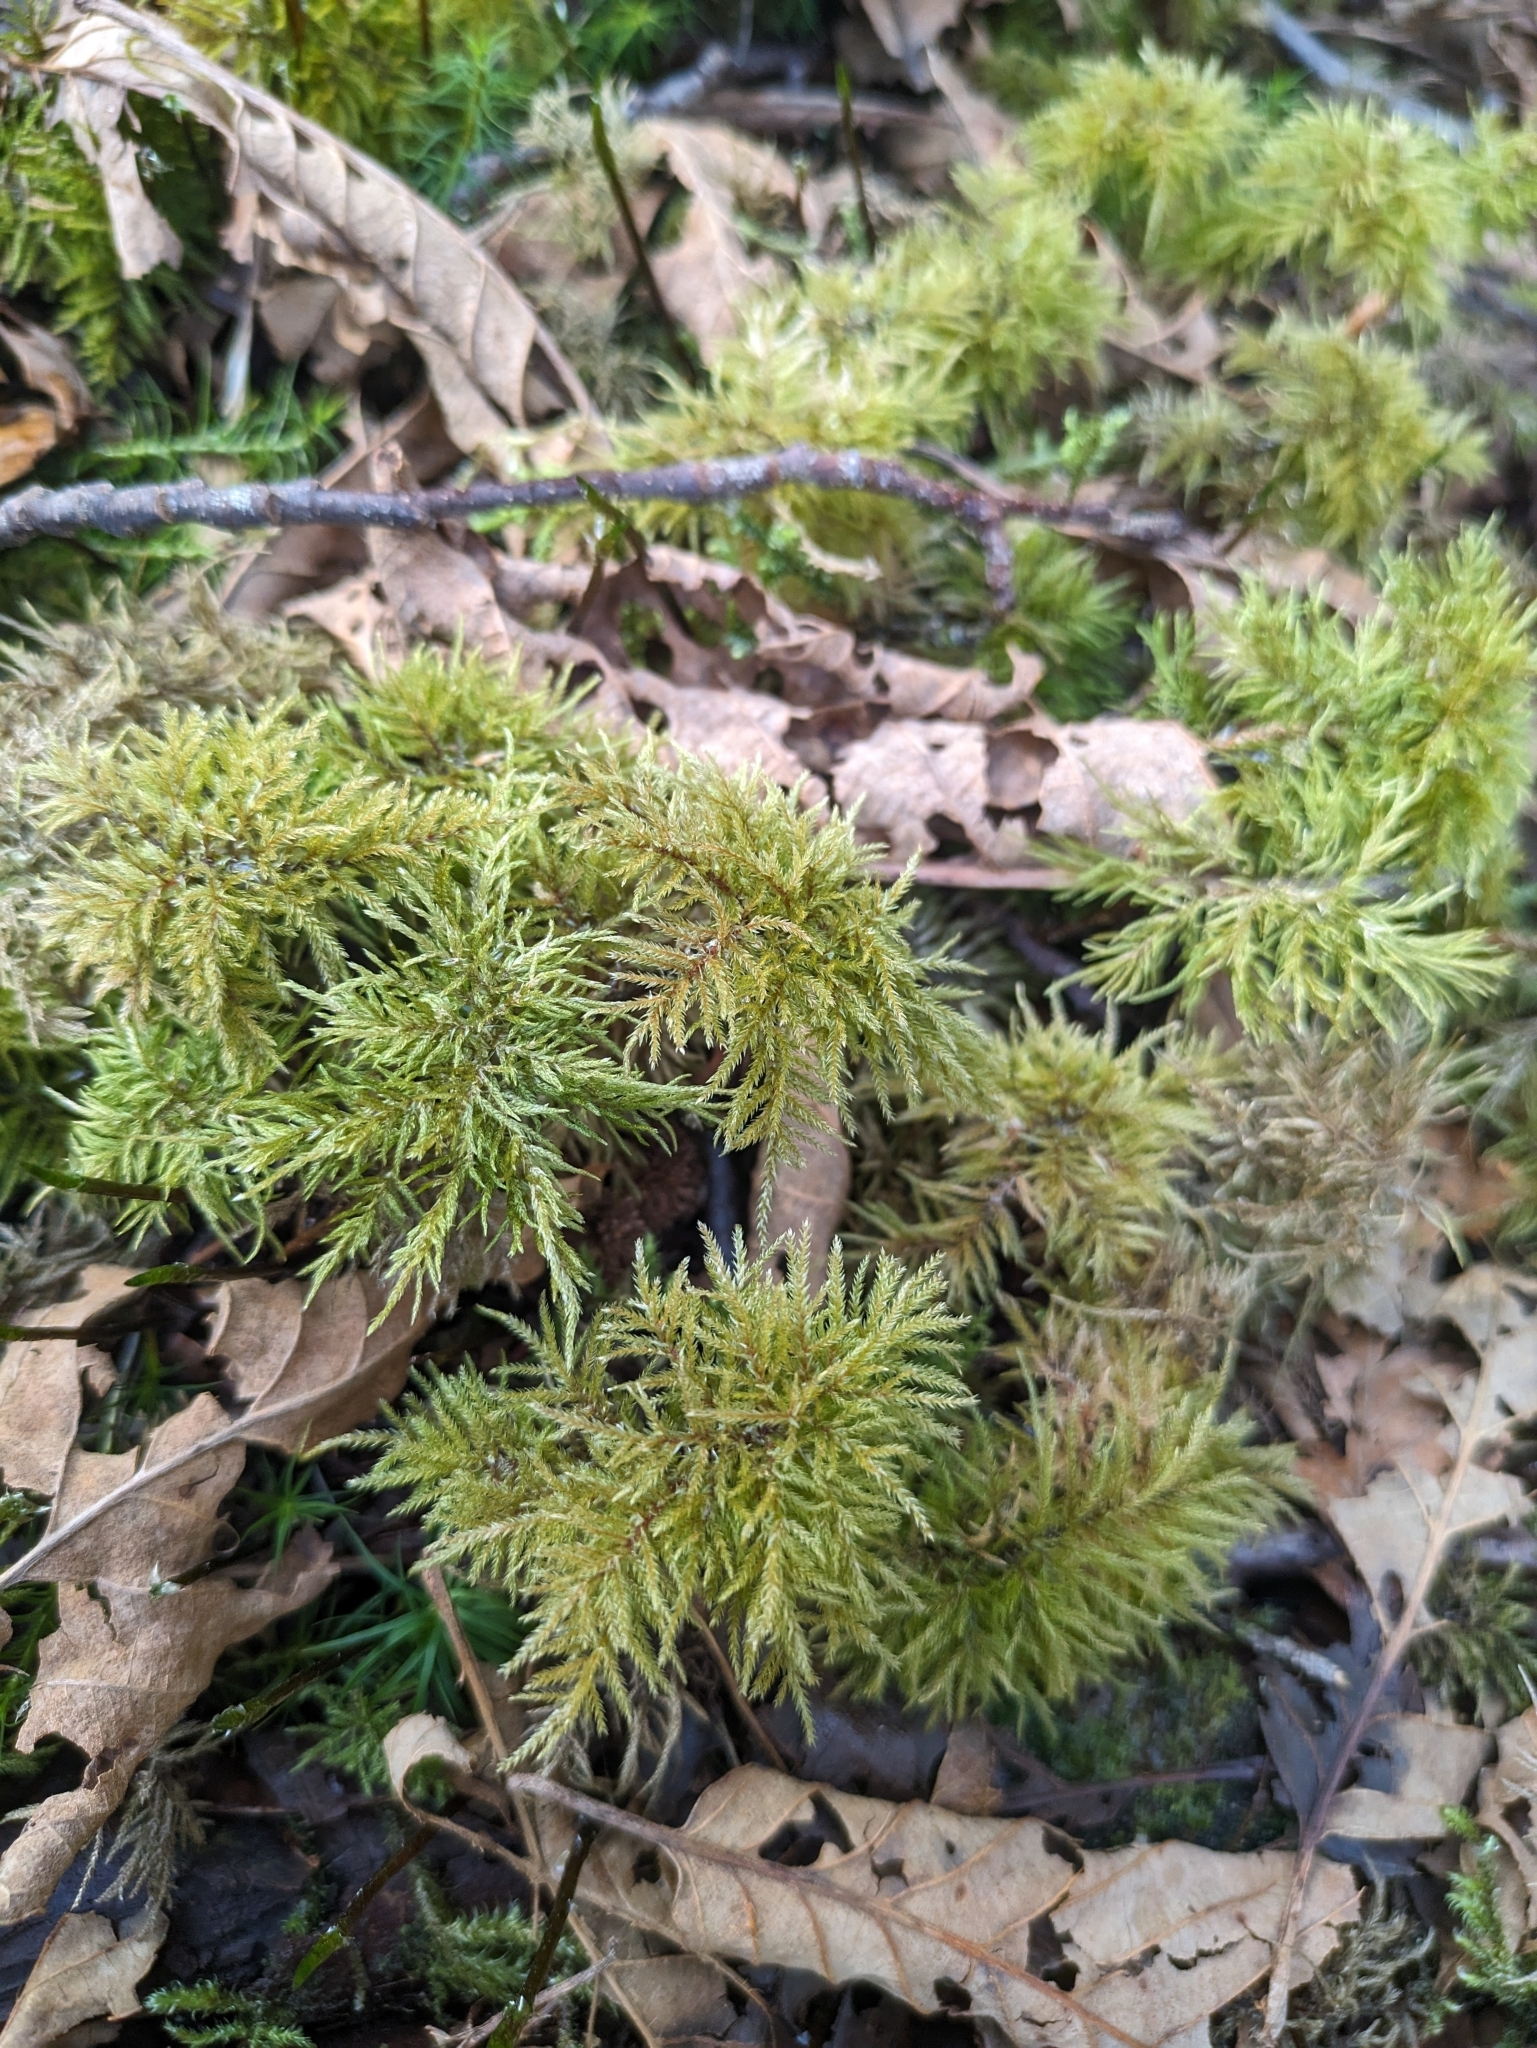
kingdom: Plantae
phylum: Bryophyta
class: Bryopsida
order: Hypnales
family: Climaciaceae
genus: Pleuroziopsis
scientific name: Pleuroziopsis ruthenica
